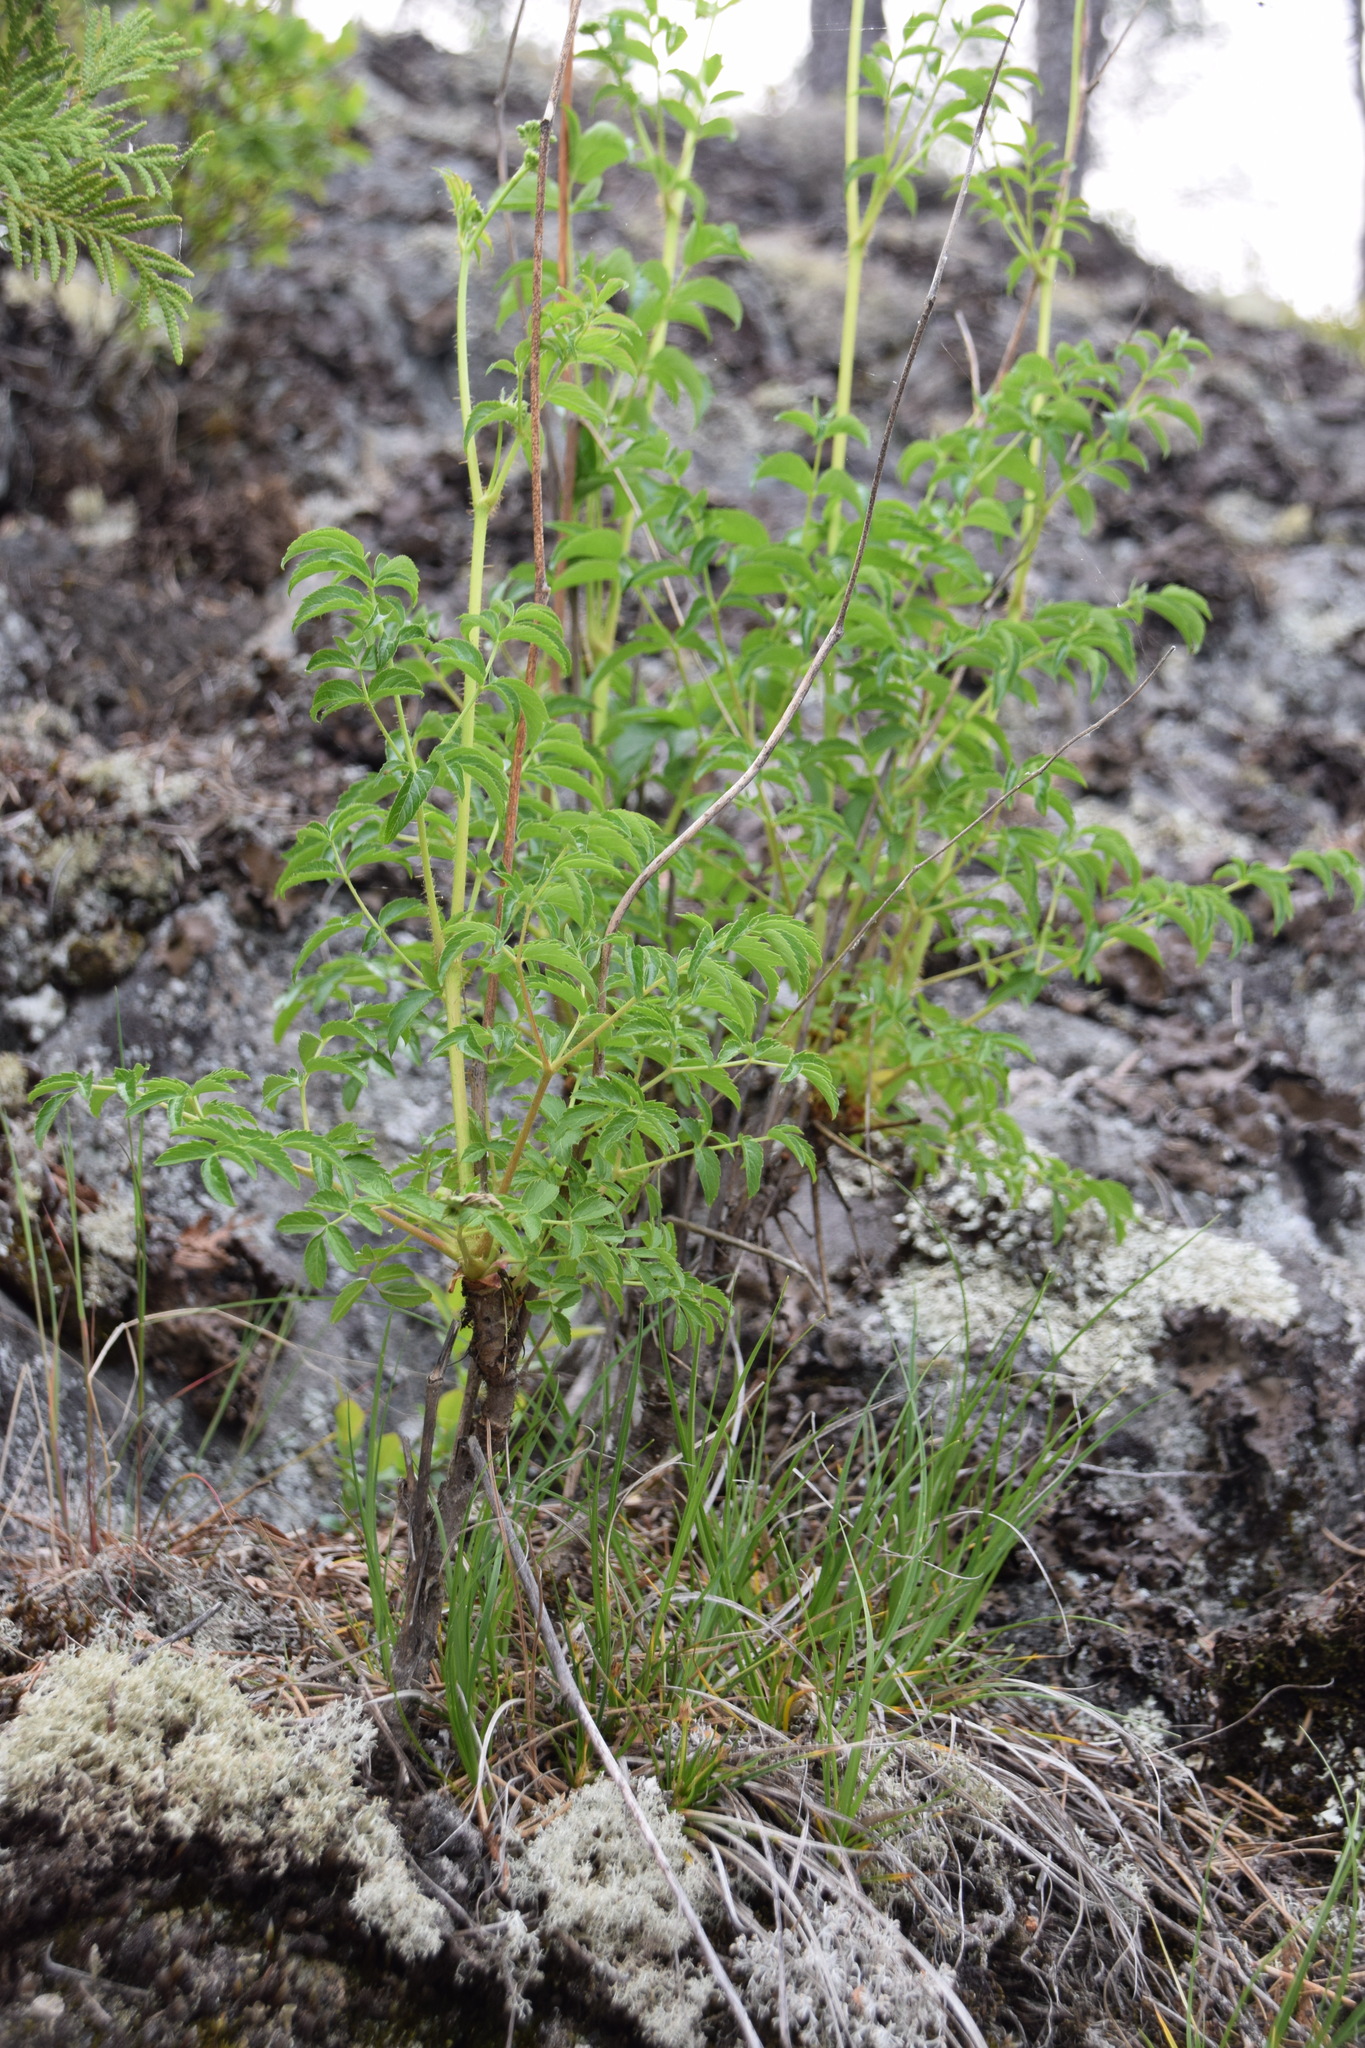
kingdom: Plantae
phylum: Tracheophyta
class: Magnoliopsida
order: Apiales
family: Araliaceae
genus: Aralia
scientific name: Aralia hispida
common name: Bristly sarsaparilla
